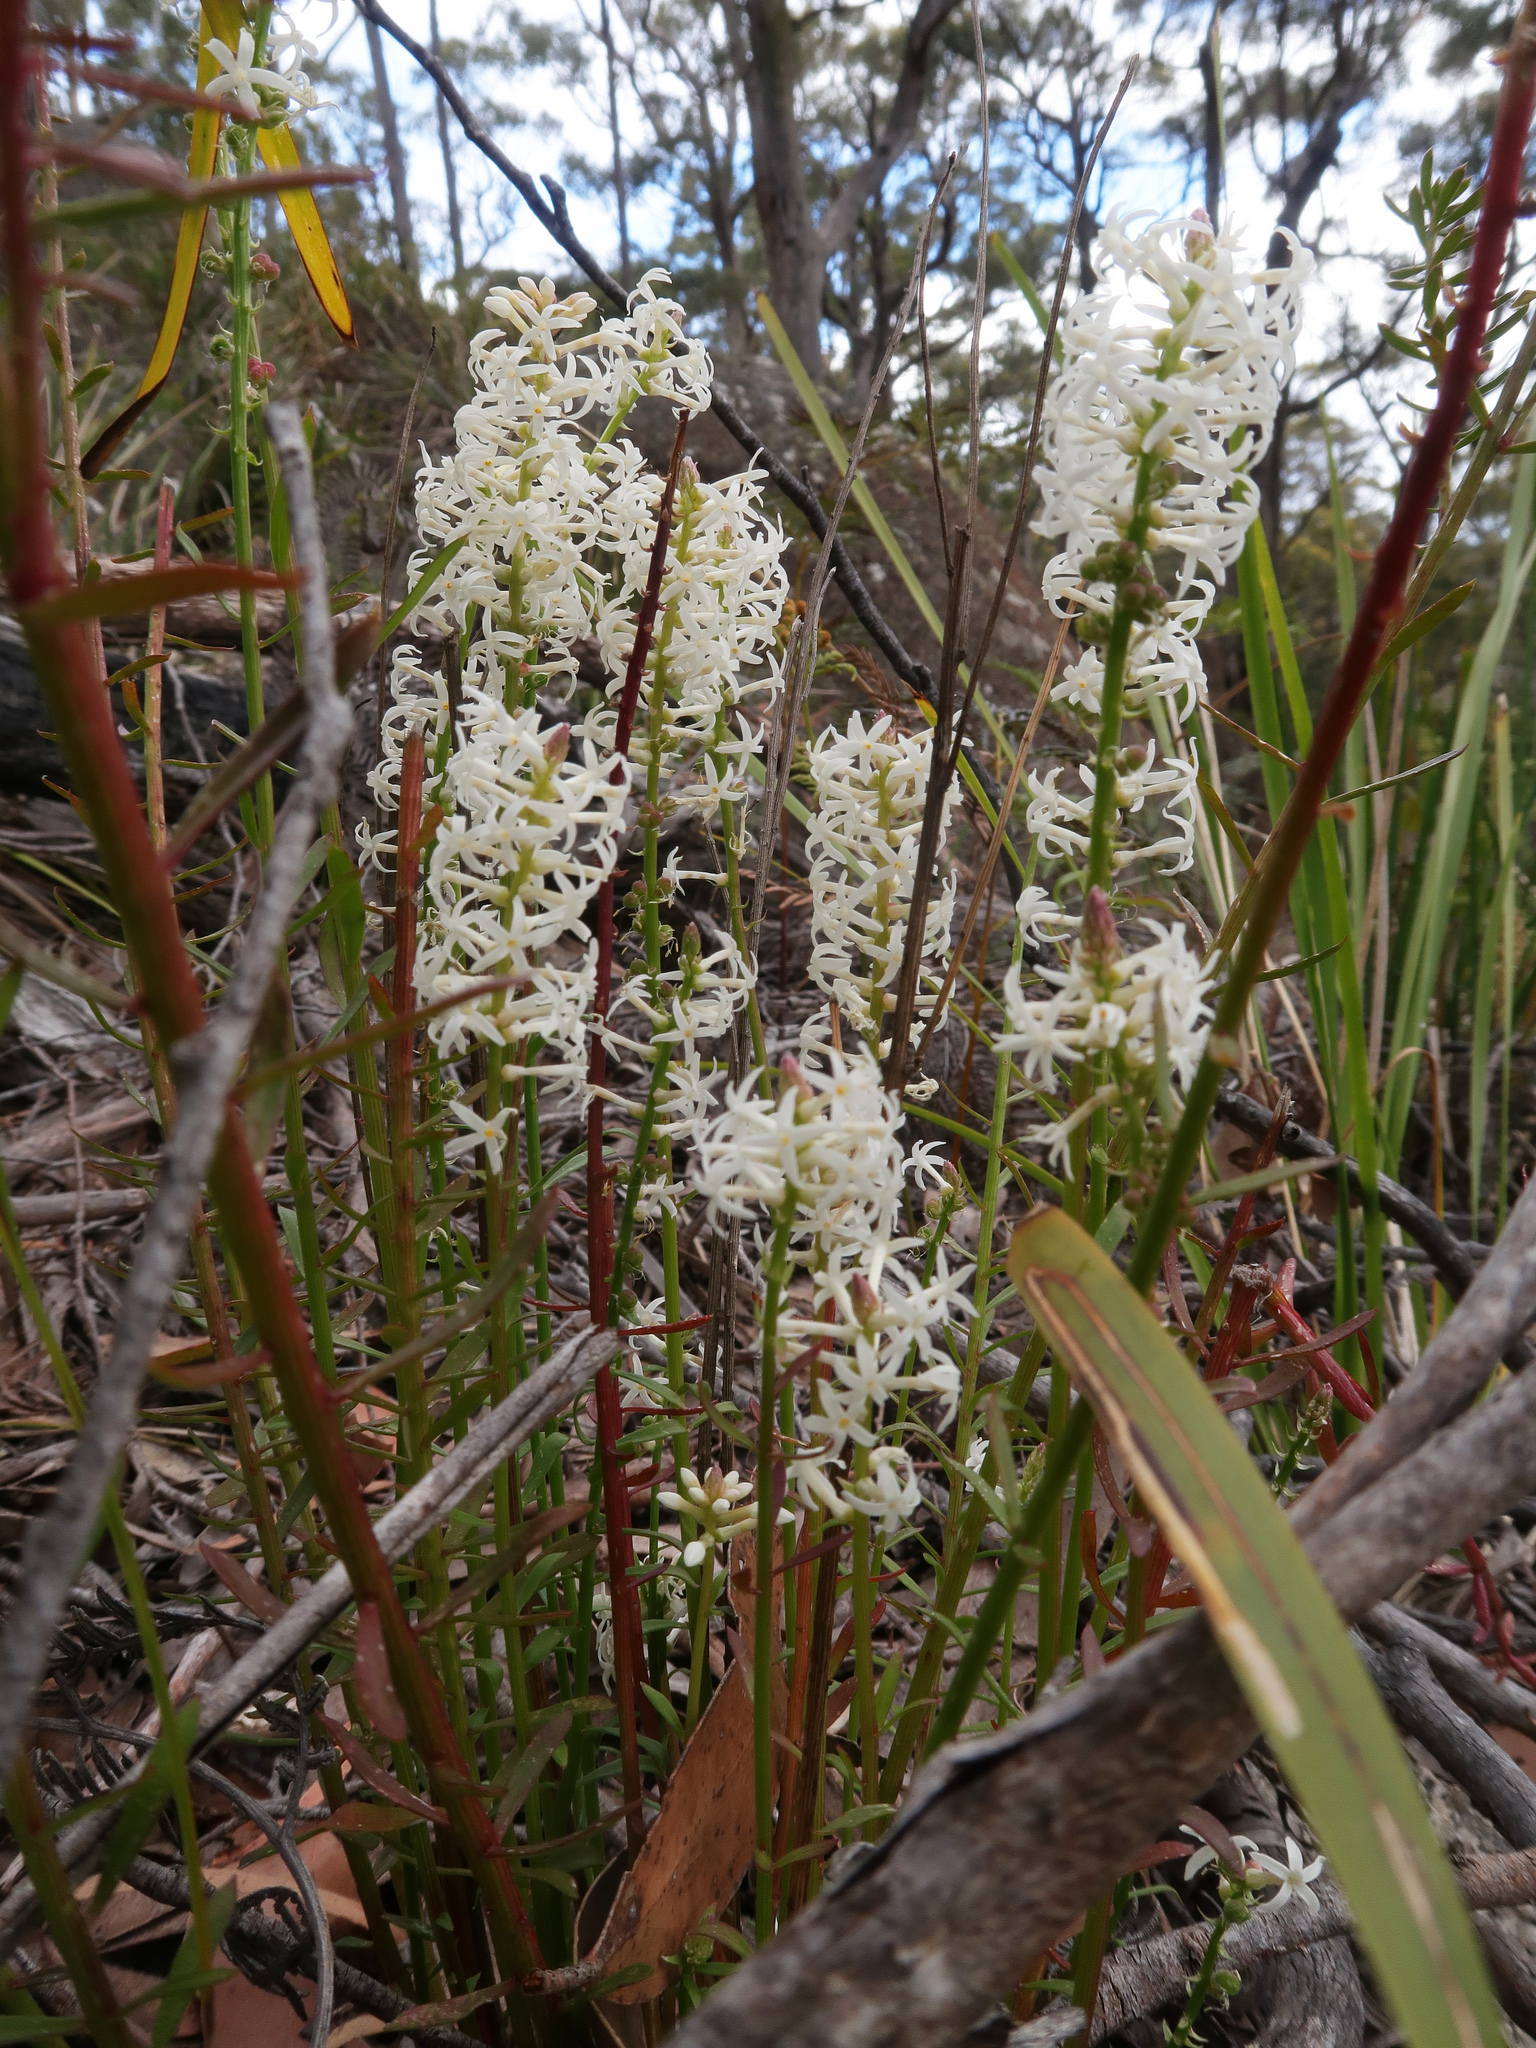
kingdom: Plantae
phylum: Tracheophyta
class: Magnoliopsida
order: Celastrales
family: Celastraceae
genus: Stackhousia
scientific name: Stackhousia monogyna
